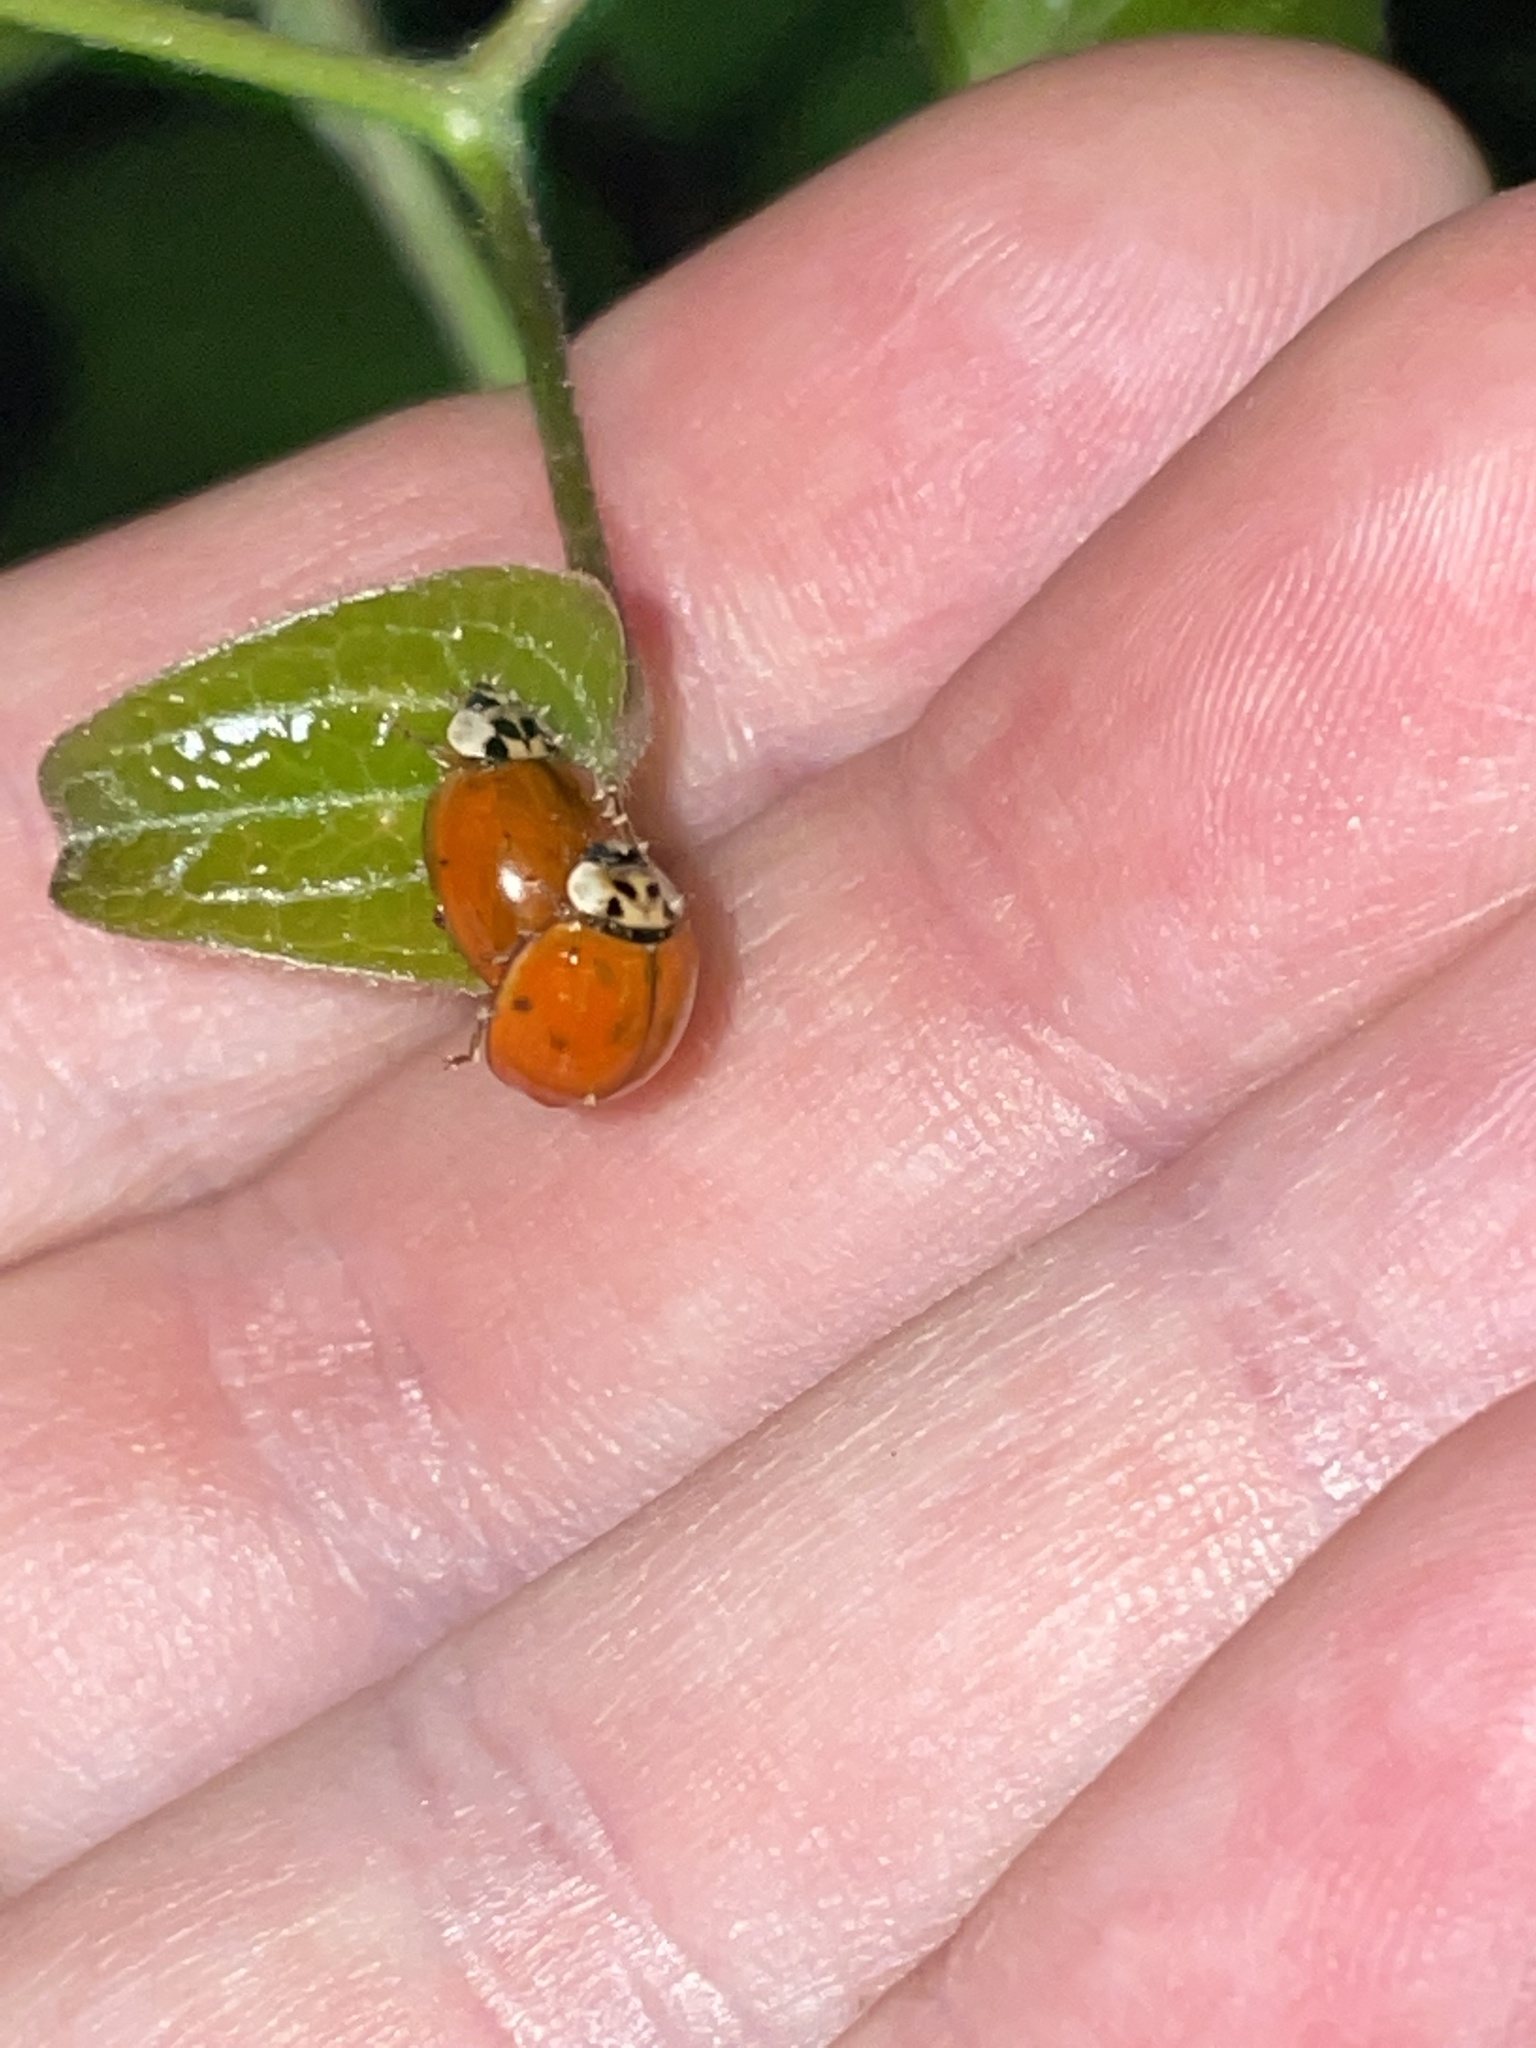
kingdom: Animalia
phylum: Arthropoda
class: Insecta
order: Coleoptera
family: Coccinellidae
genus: Harmonia
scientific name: Harmonia axyridis
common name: Harlequin ladybird
